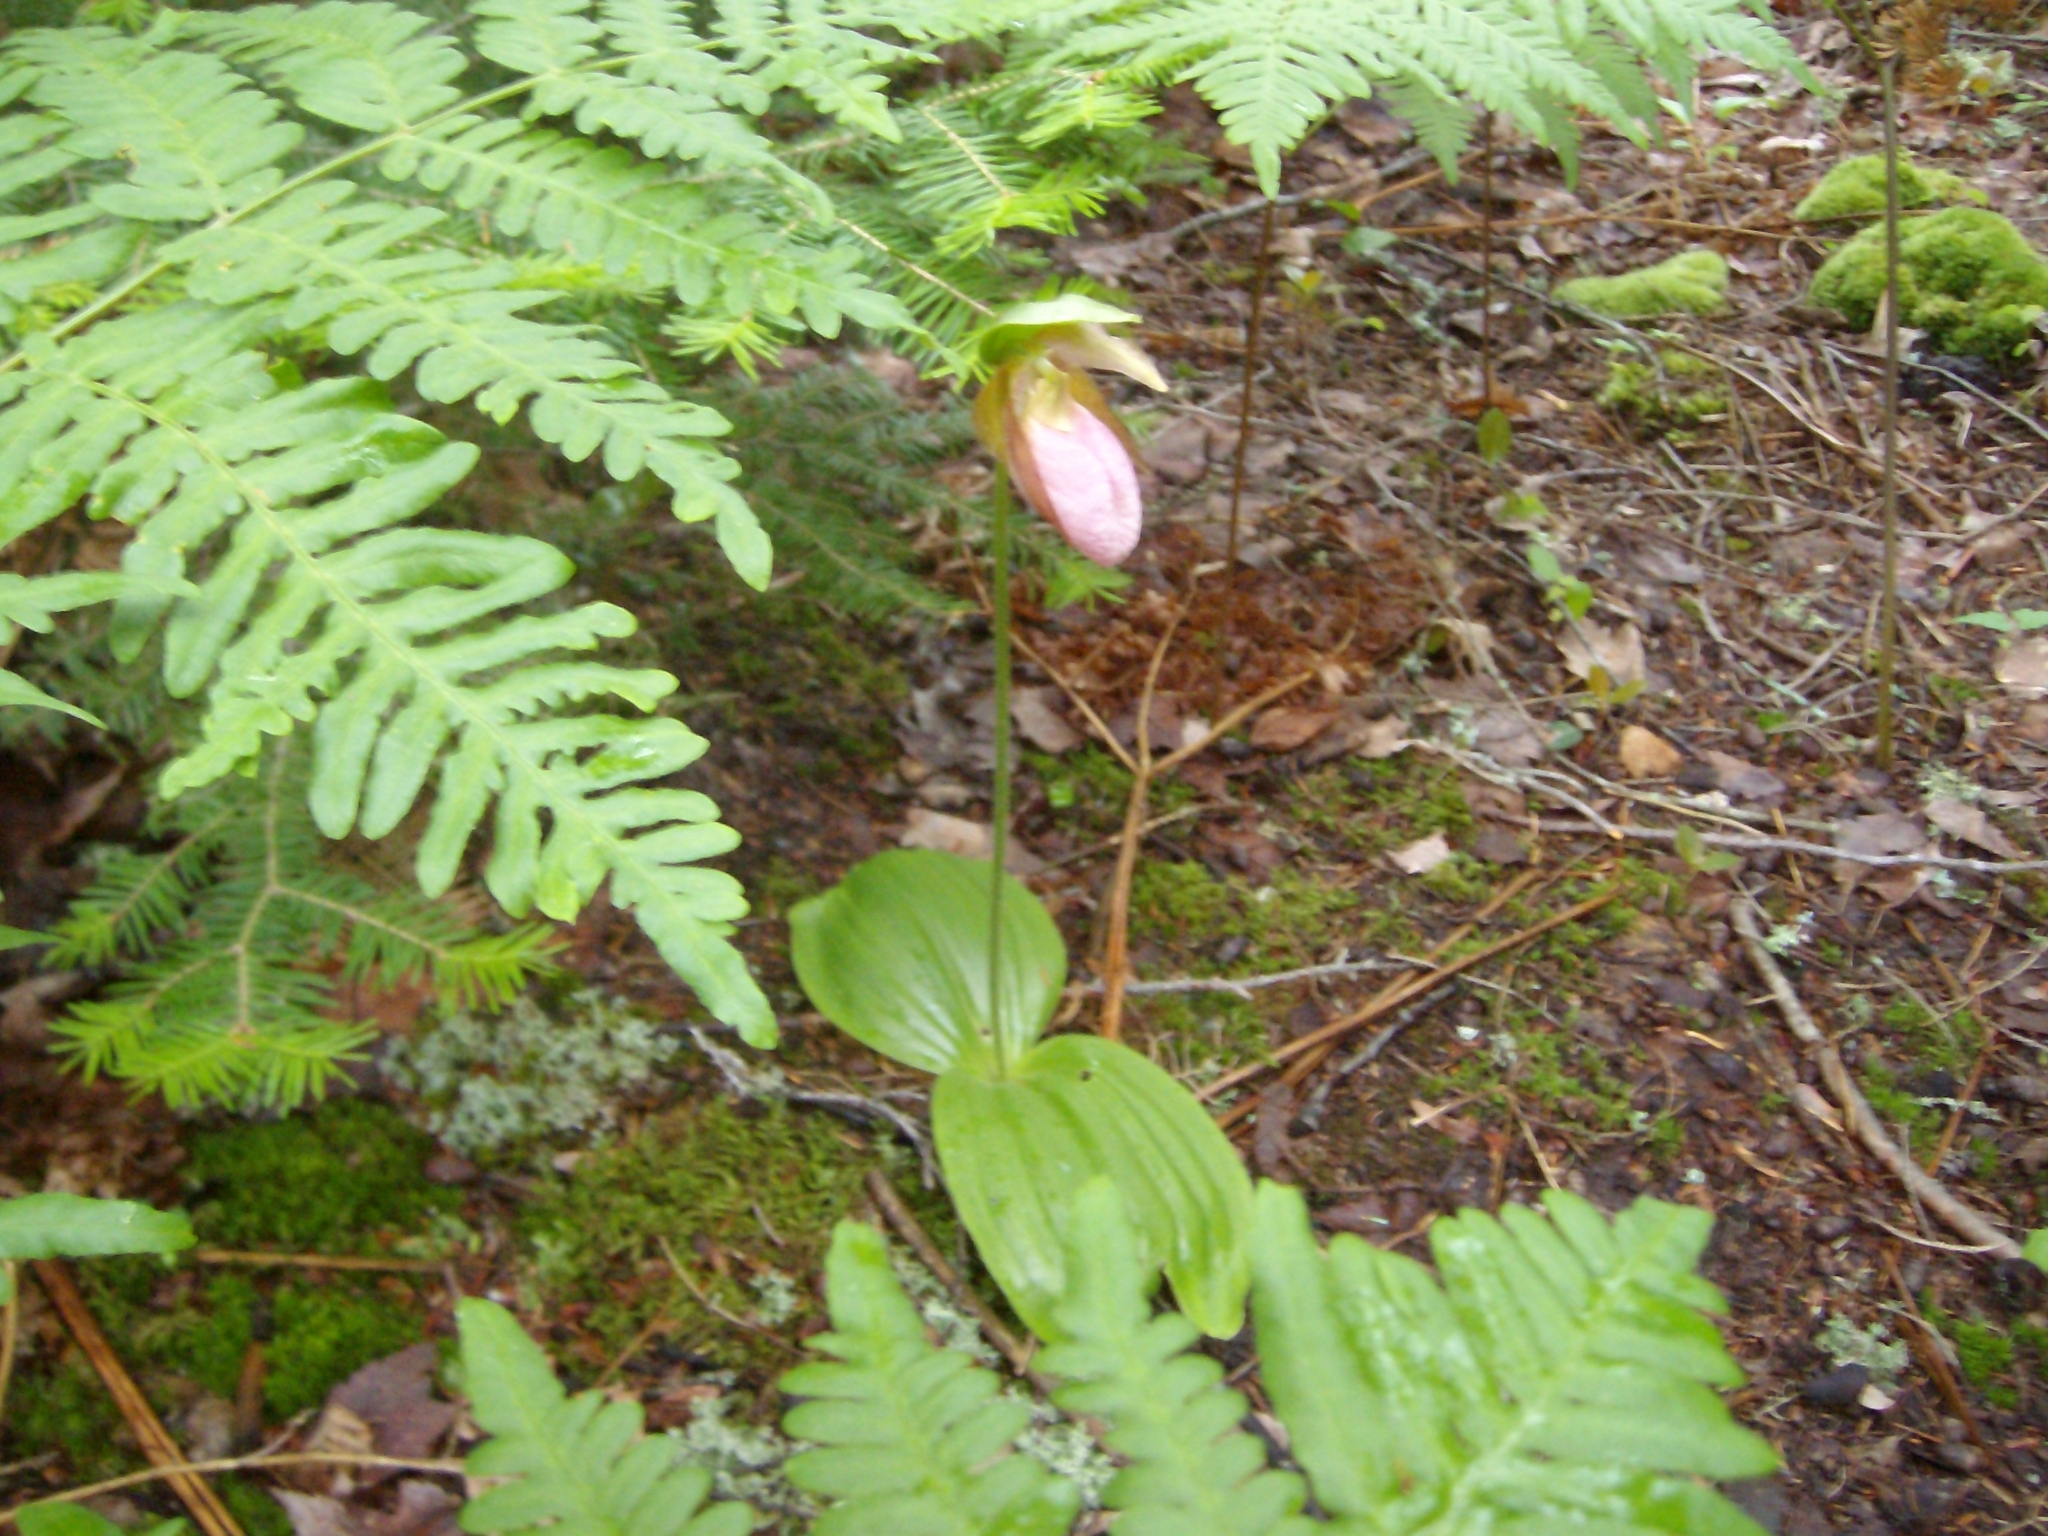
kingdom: Plantae
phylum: Tracheophyta
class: Liliopsida
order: Asparagales
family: Orchidaceae
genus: Cypripedium
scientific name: Cypripedium acaule
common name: Pink lady's-slipper
